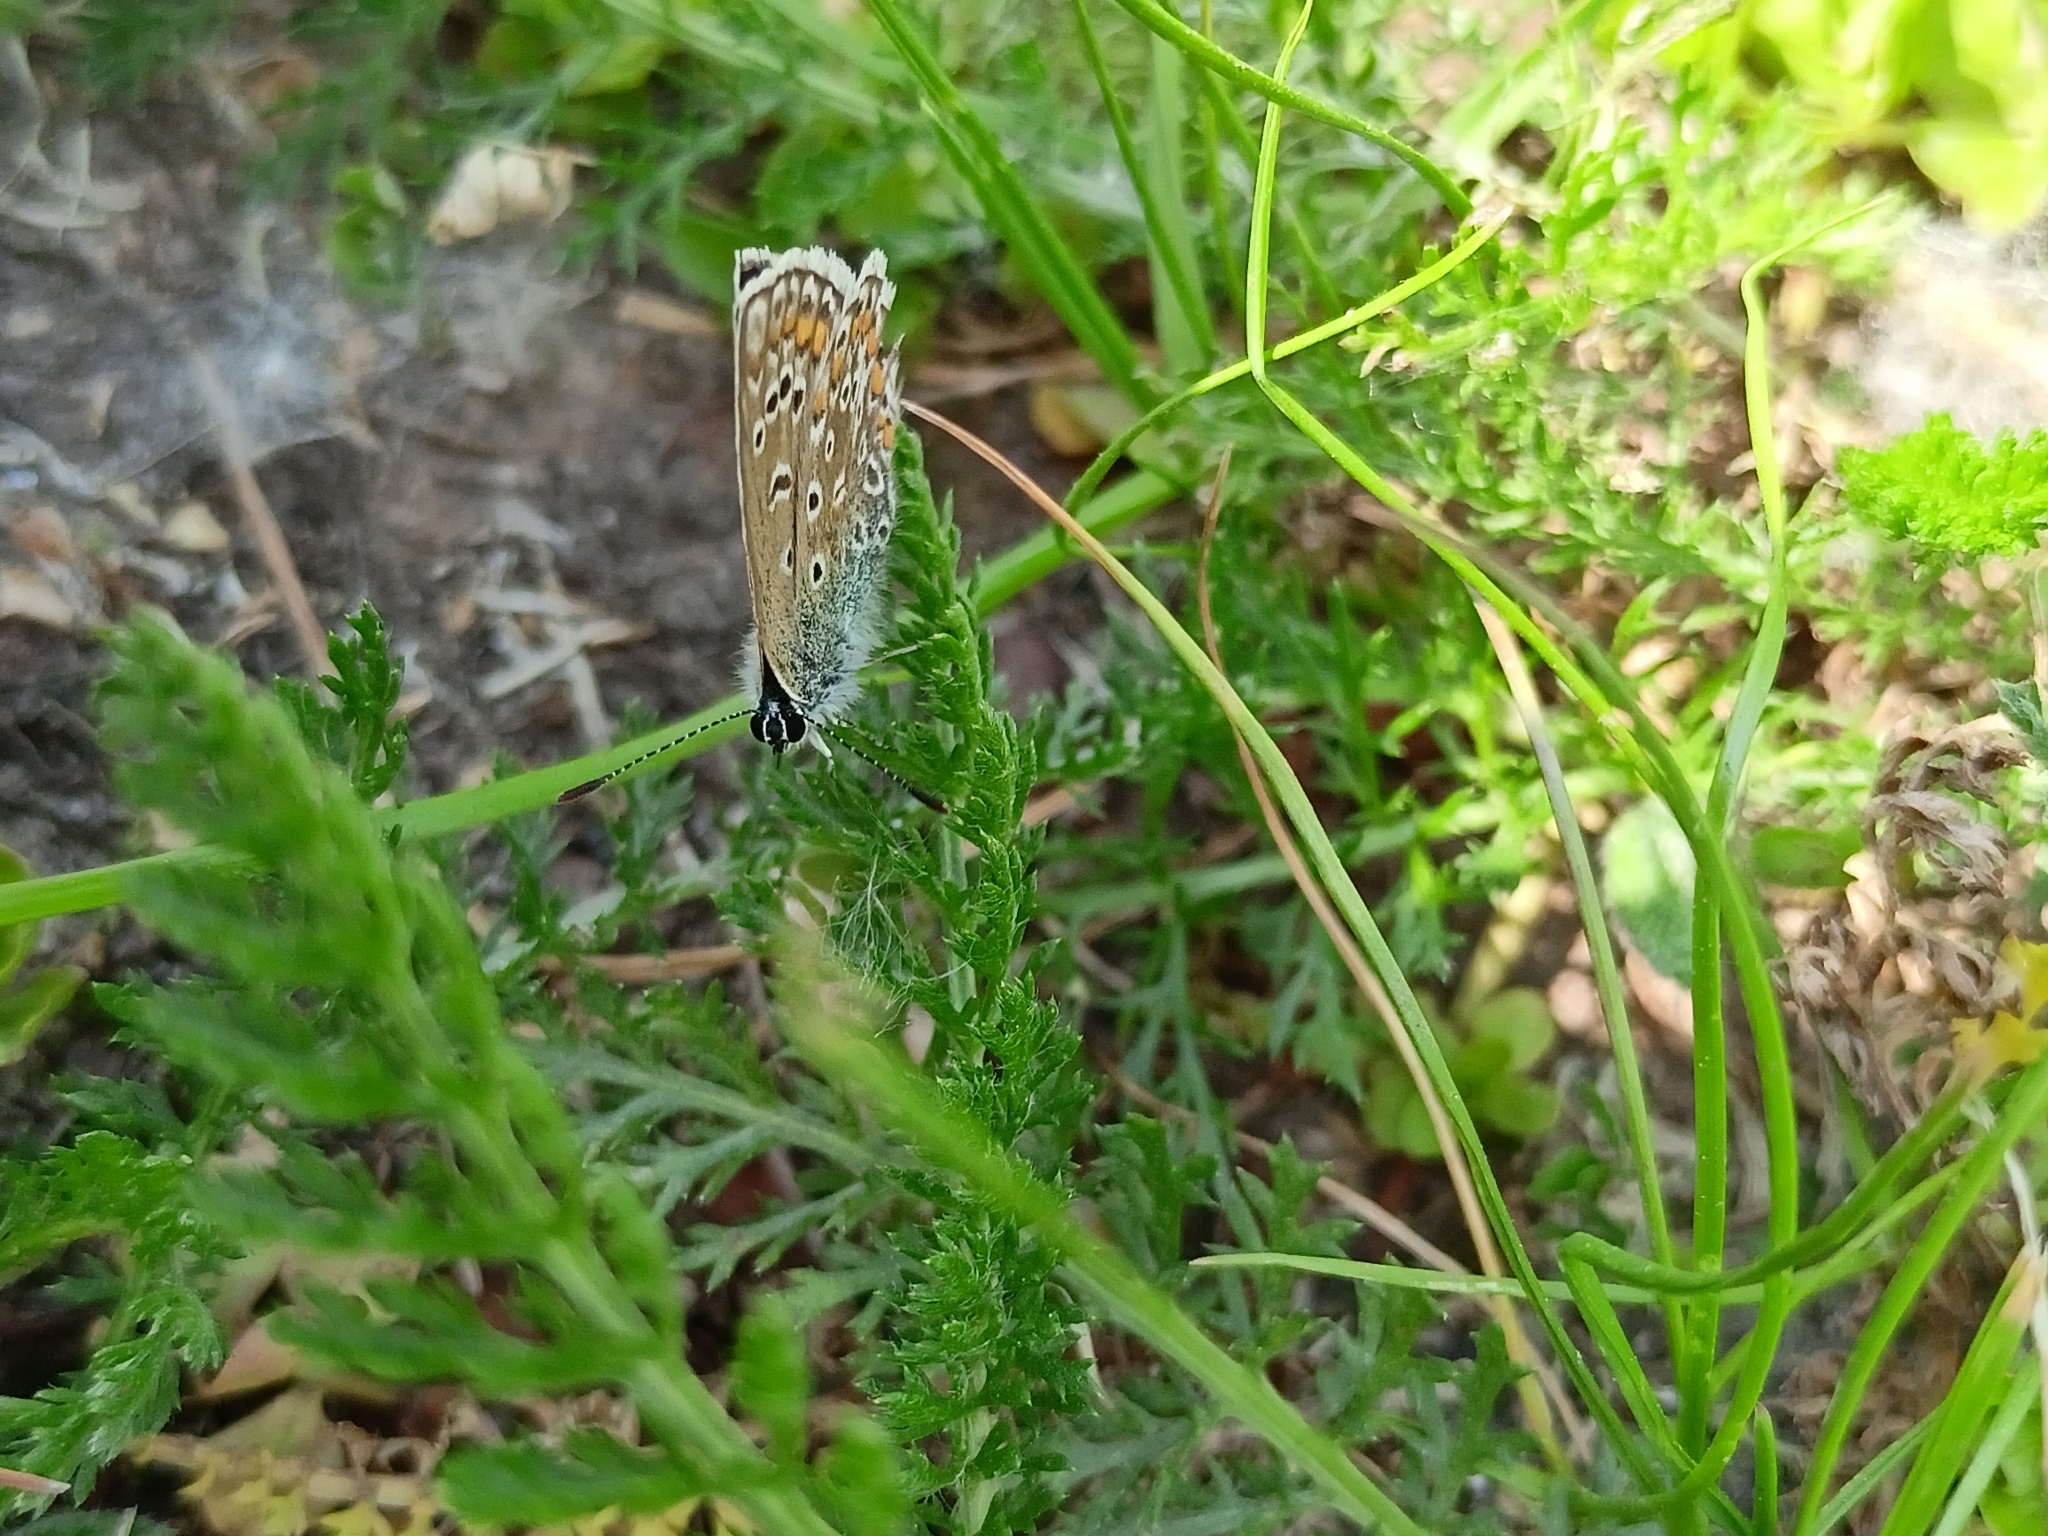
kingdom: Animalia
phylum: Arthropoda
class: Insecta
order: Lepidoptera
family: Lycaenidae
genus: Polyommatus
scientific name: Polyommatus icarus
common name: Common blue
